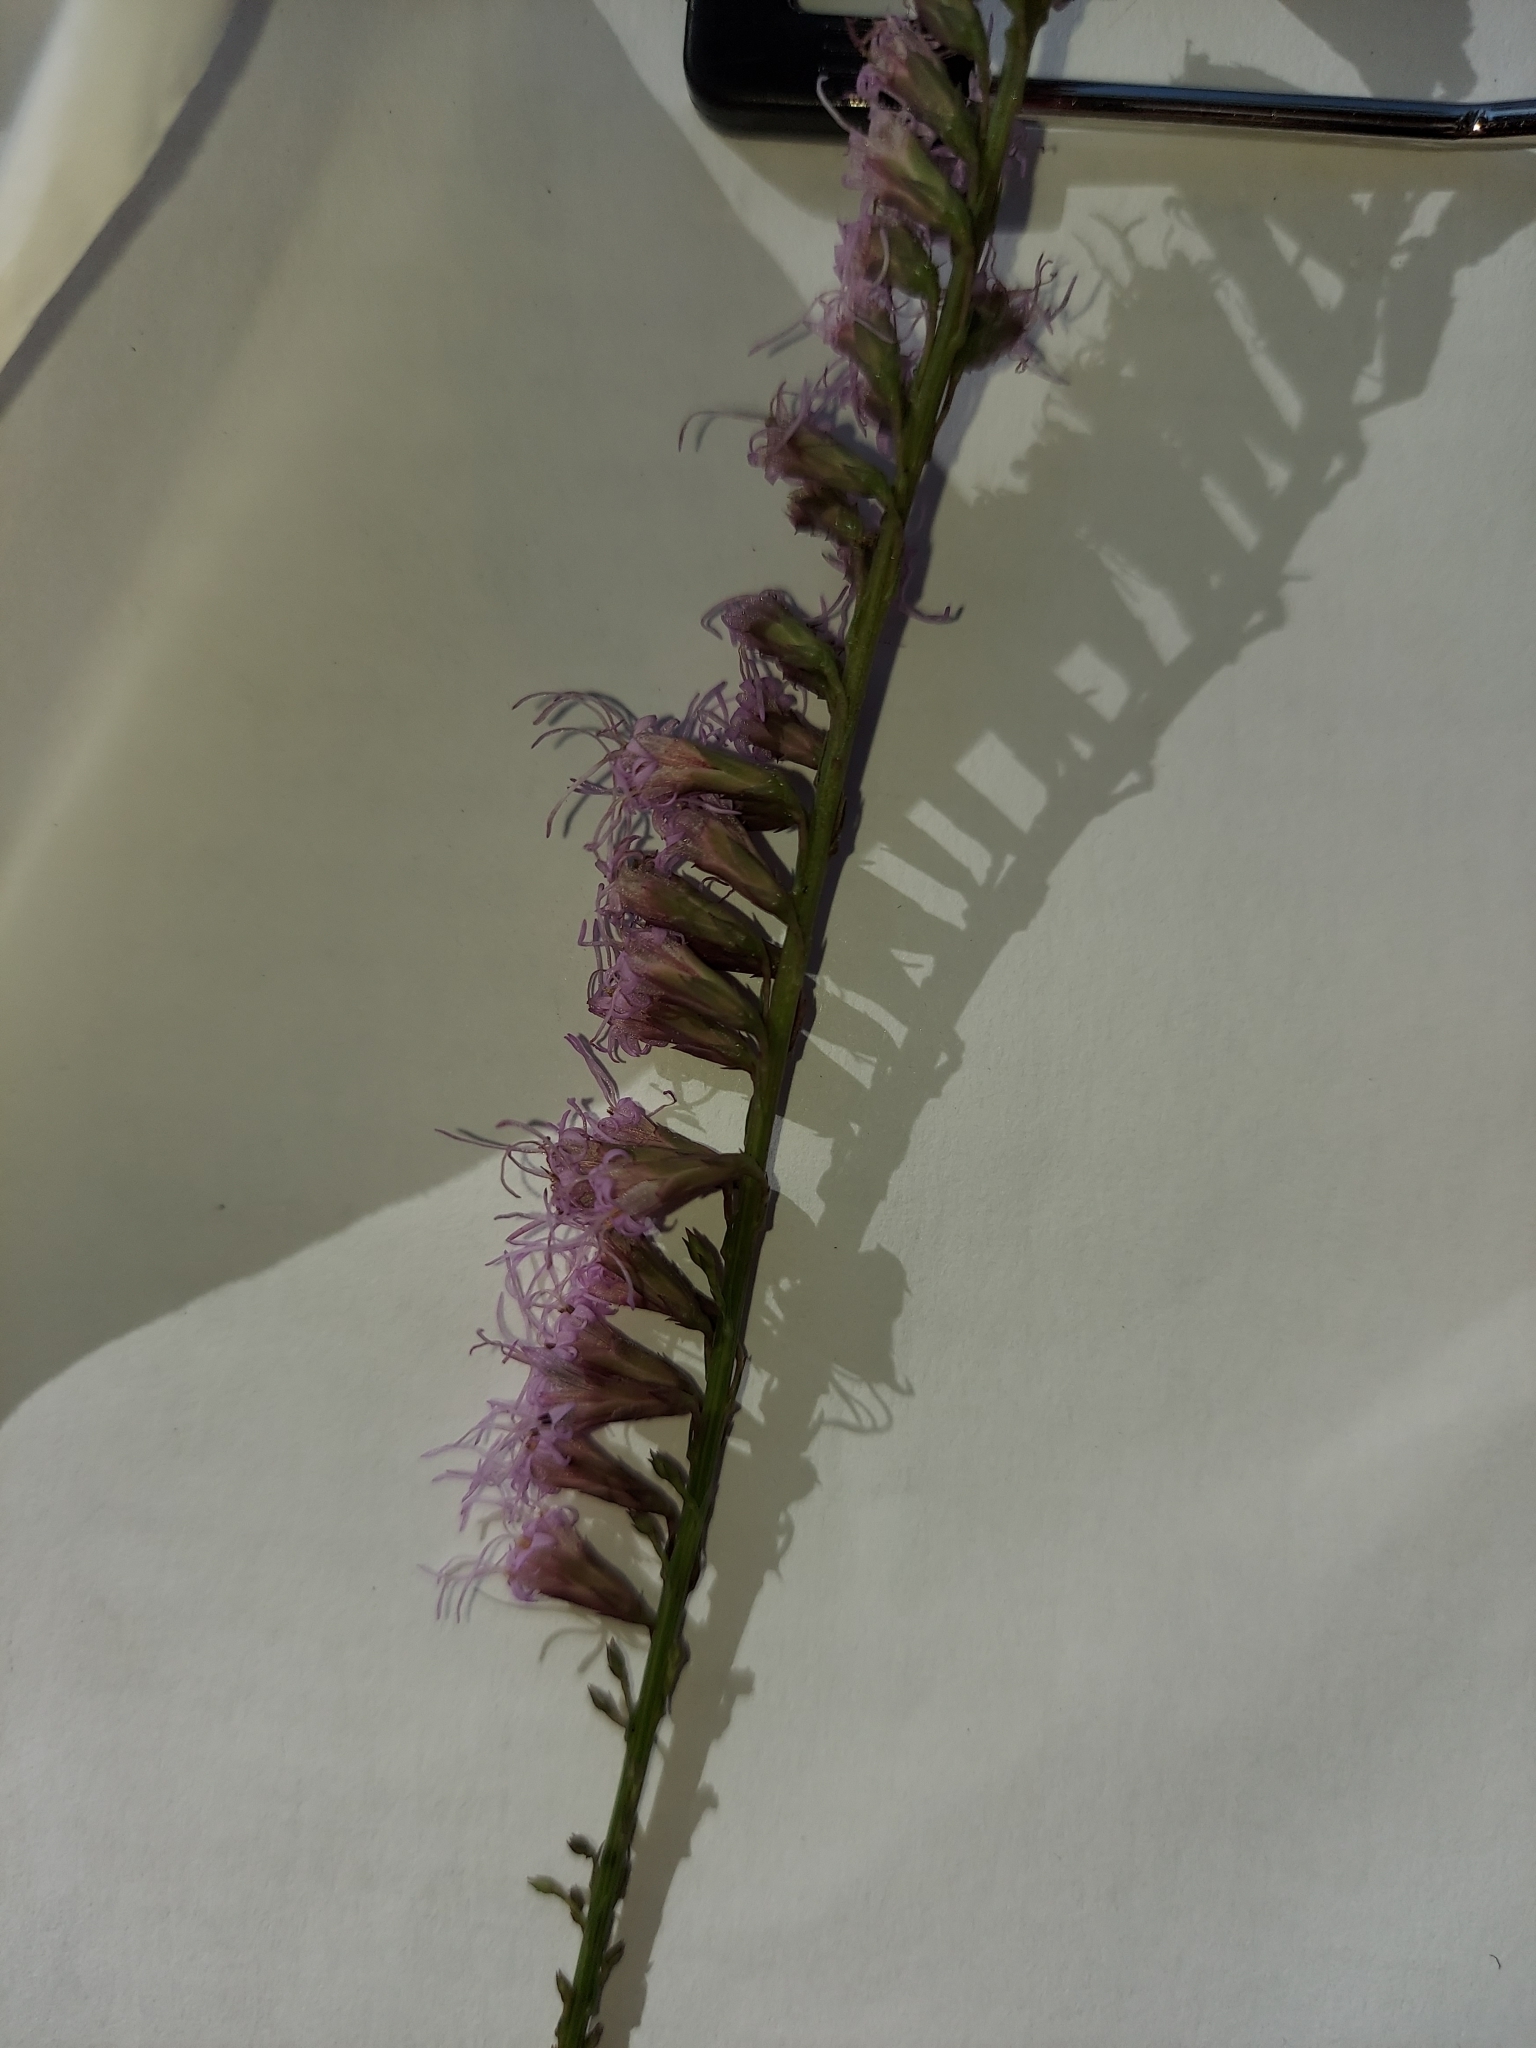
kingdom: Plantae
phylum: Tracheophyta
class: Magnoliopsida
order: Asterales
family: Asteraceae
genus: Liatris
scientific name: Liatris pauciflora
